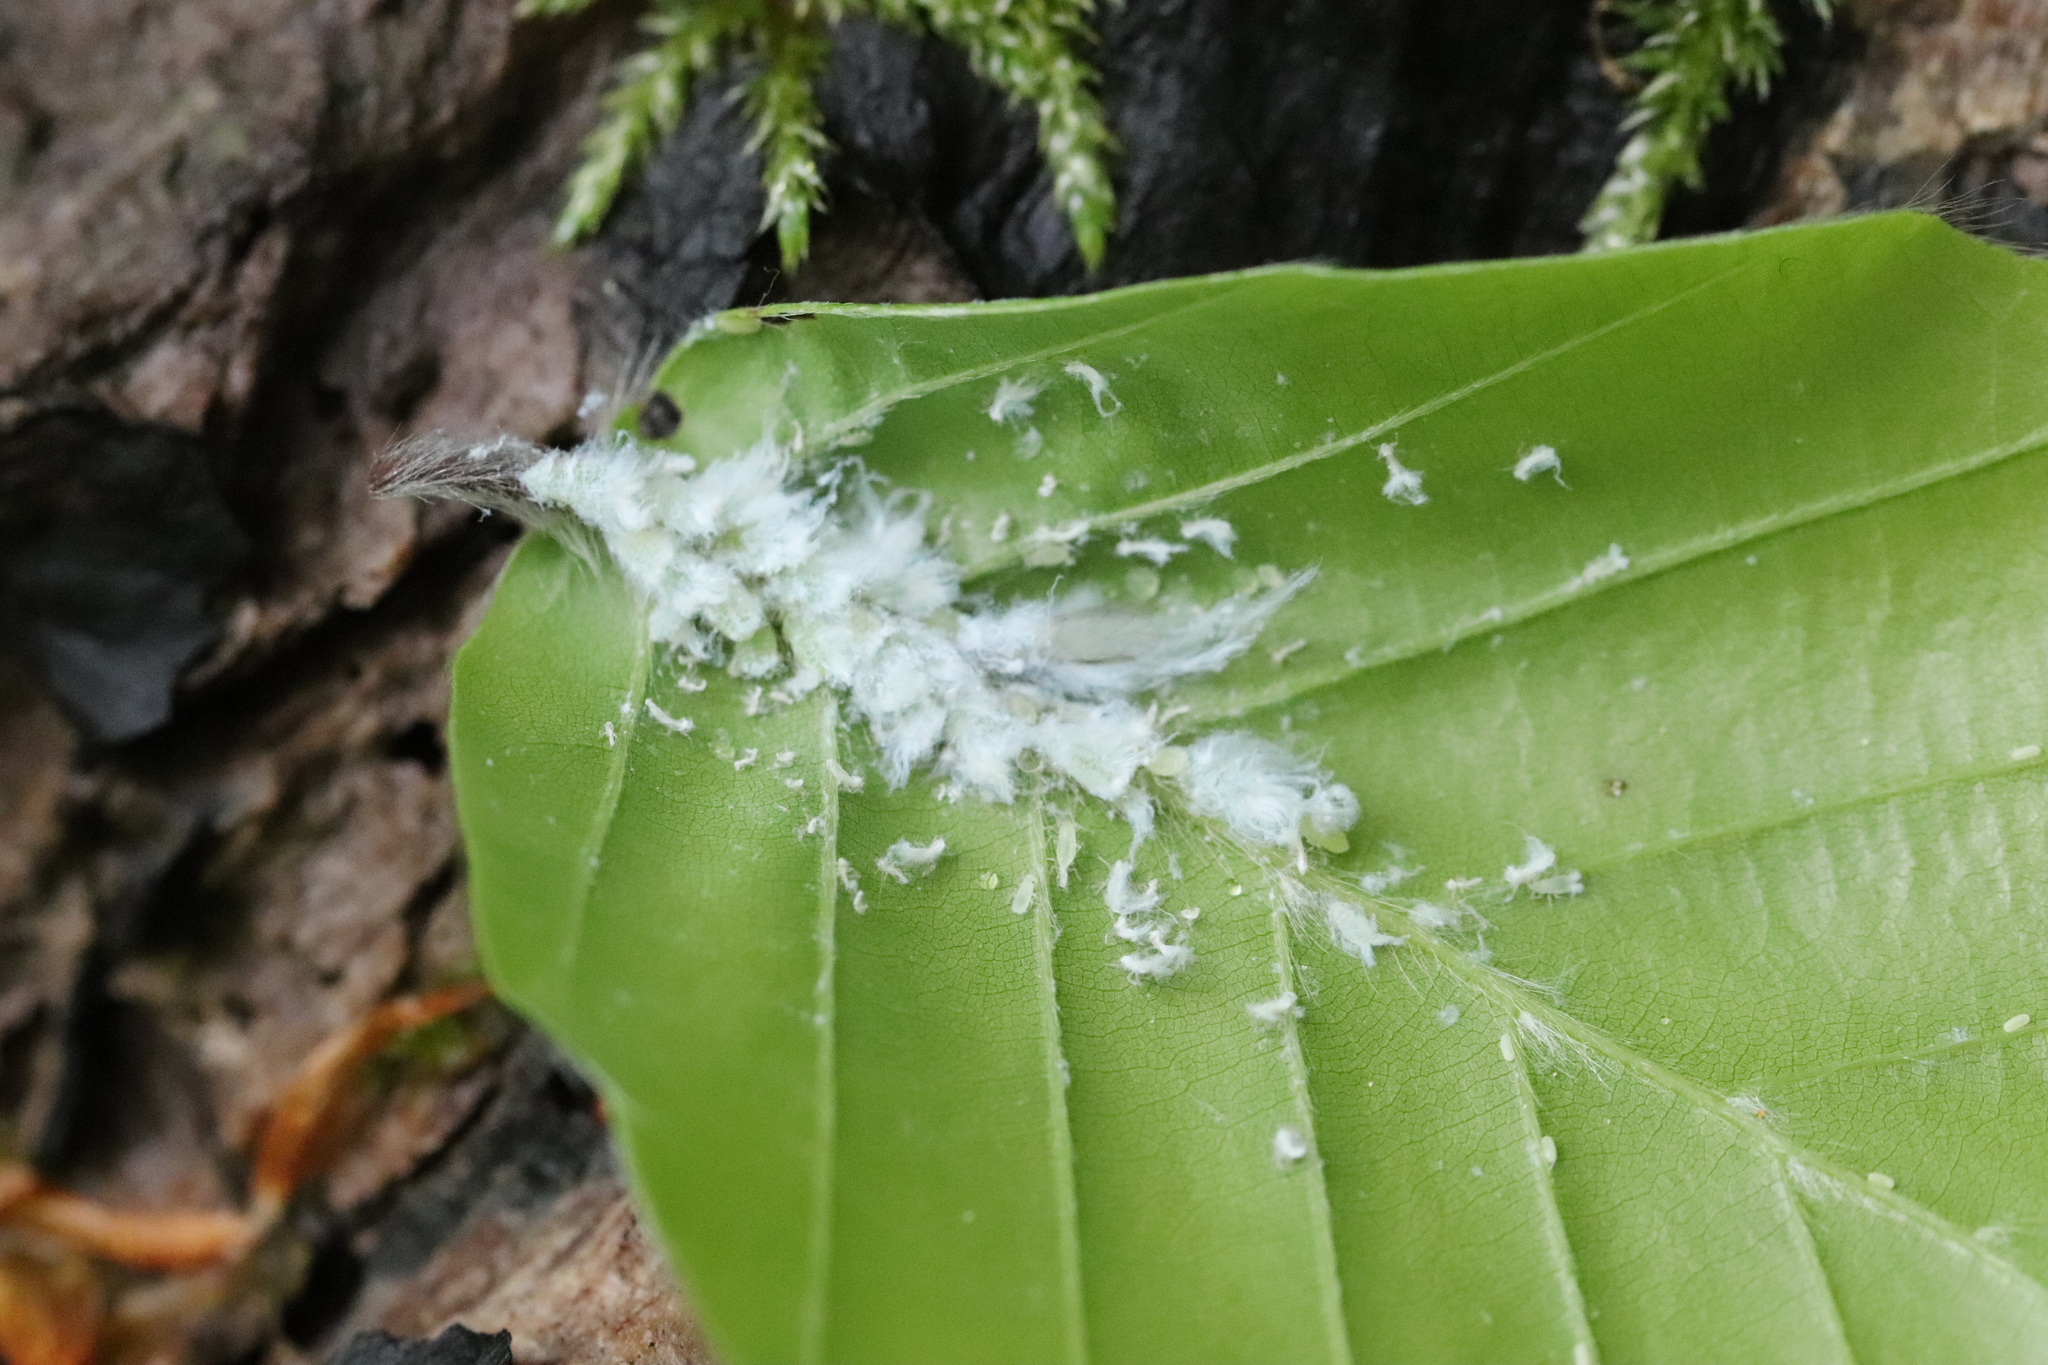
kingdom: Animalia
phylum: Arthropoda
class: Insecta
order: Hemiptera
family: Aphididae
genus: Phyllaphis
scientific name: Phyllaphis fagi
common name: Beech aphid
